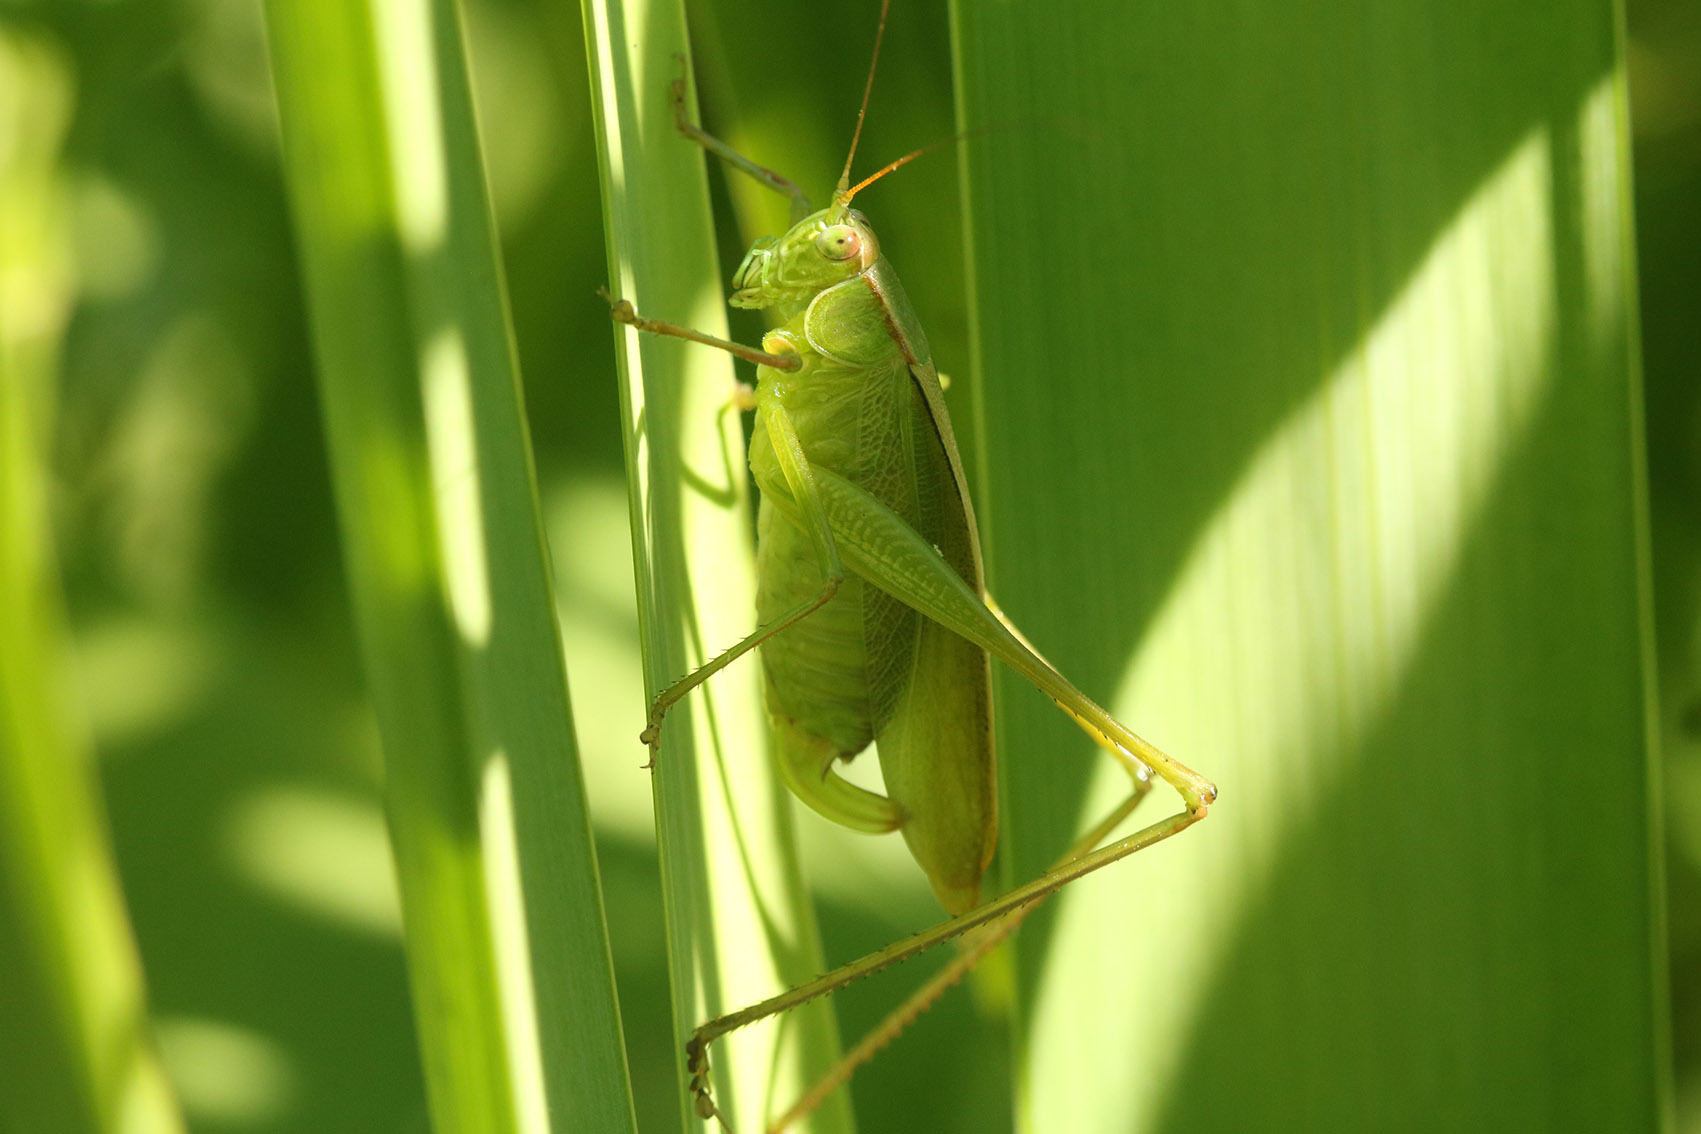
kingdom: Animalia
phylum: Arthropoda
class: Insecta
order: Orthoptera
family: Tettigoniidae
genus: Theudoria
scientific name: Theudoria melanocnemis
